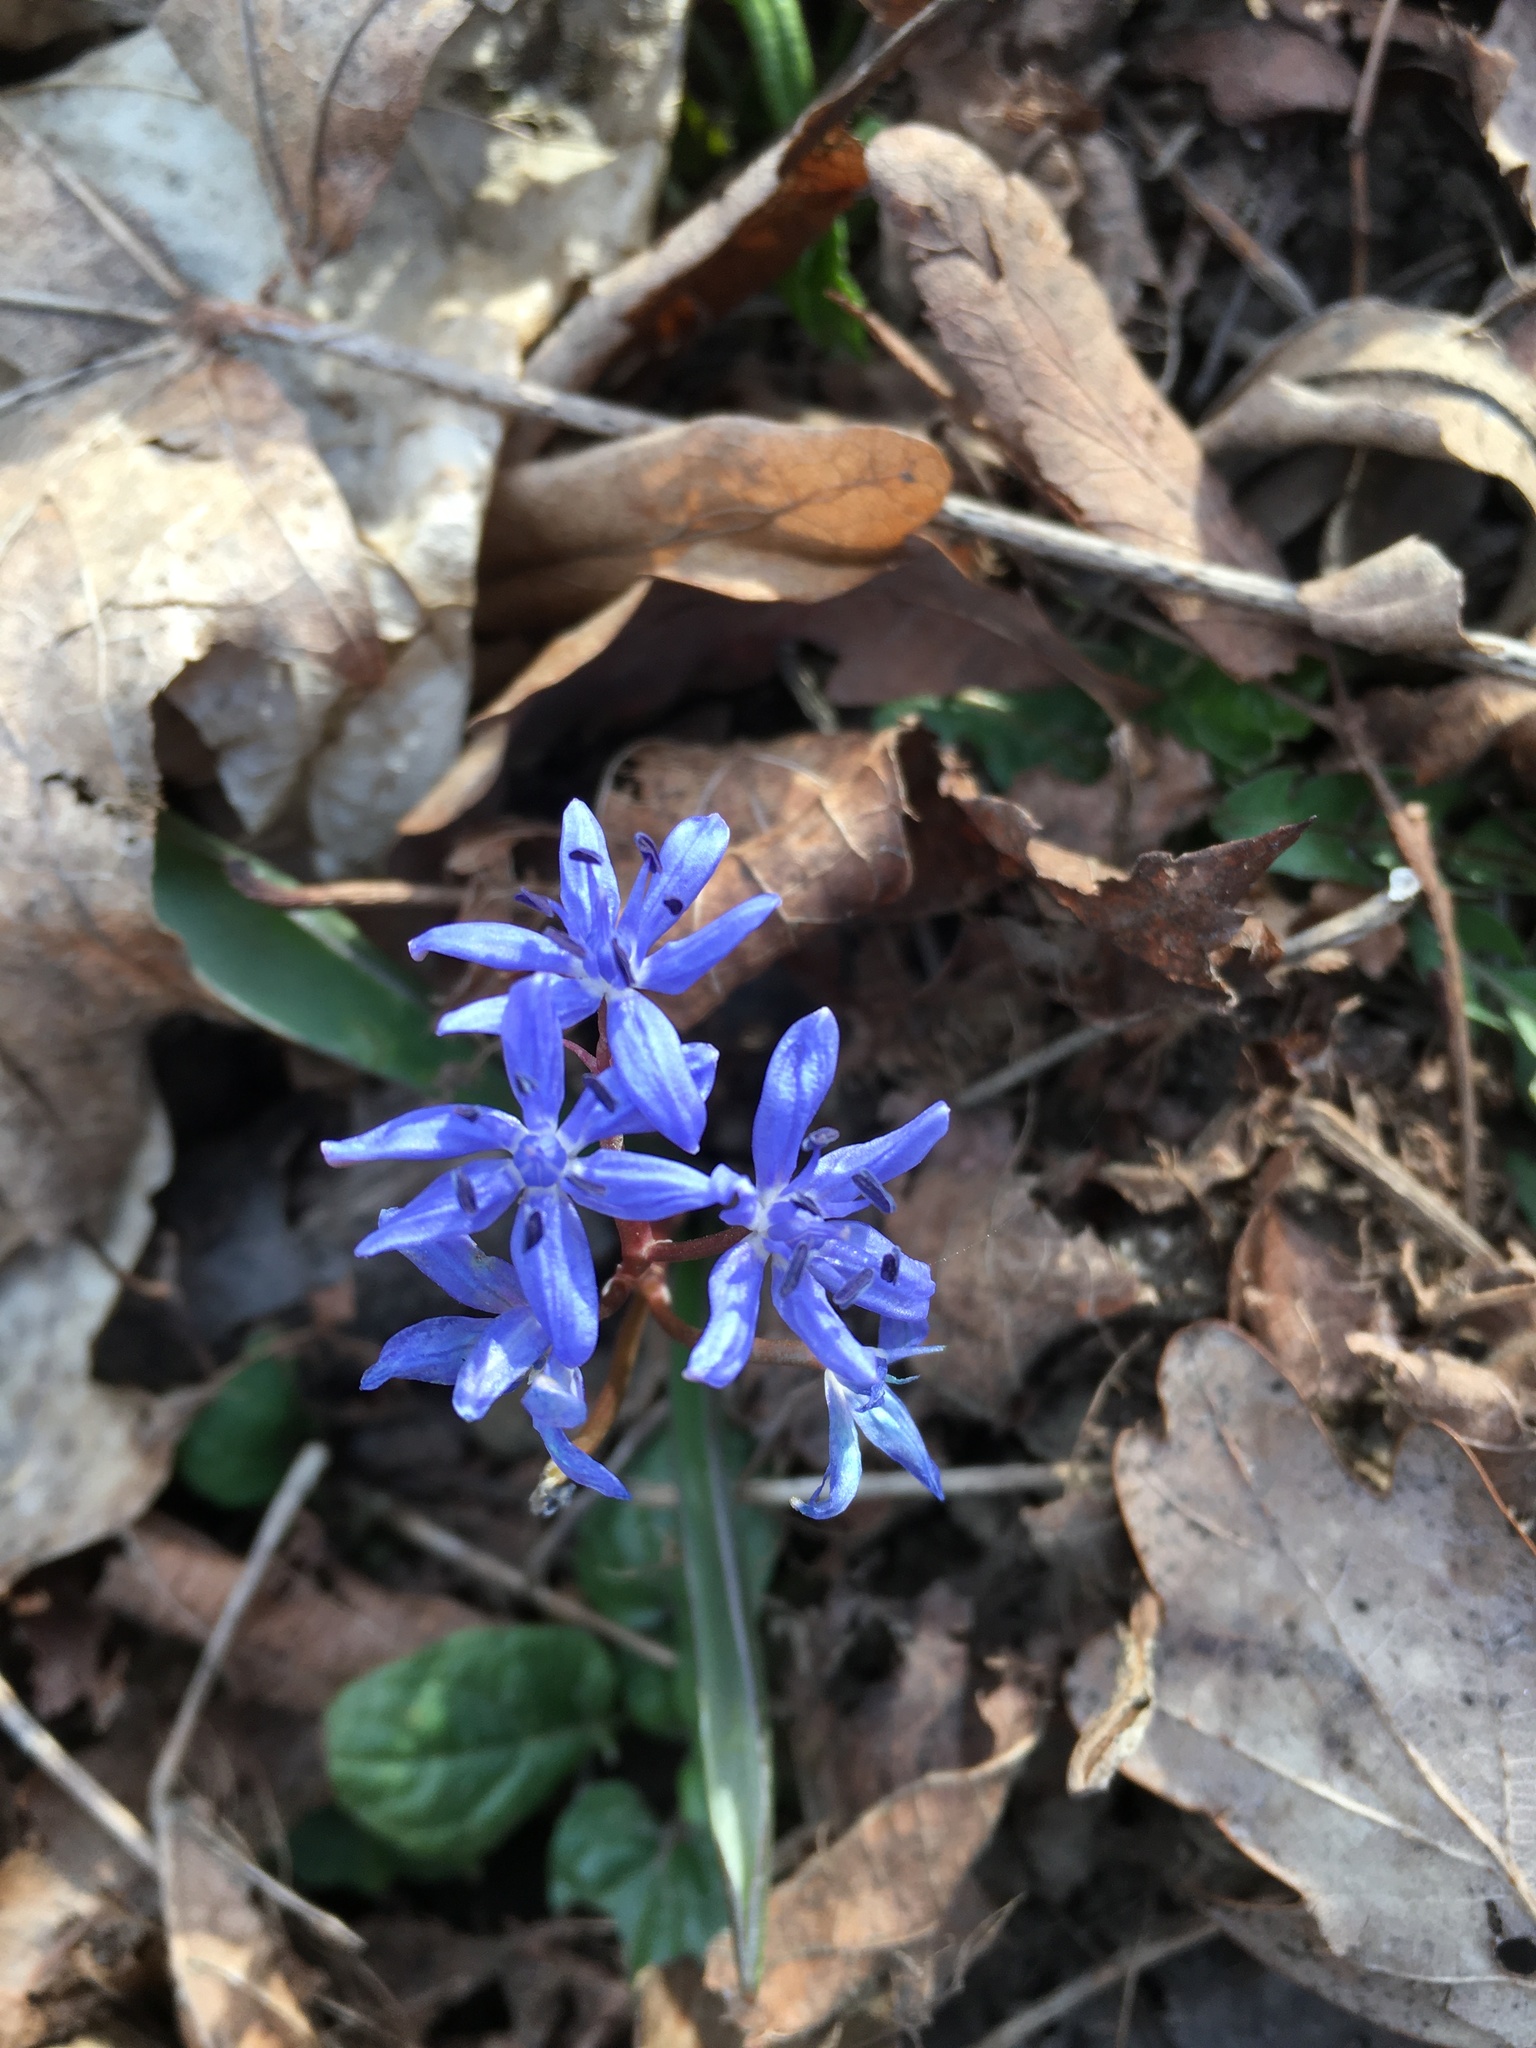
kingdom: Plantae
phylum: Tracheophyta
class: Liliopsida
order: Asparagales
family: Asparagaceae
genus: Scilla
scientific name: Scilla vindobonensis
